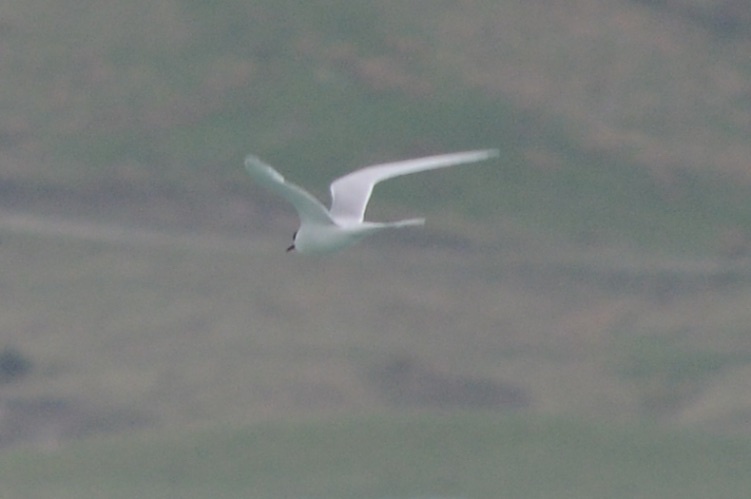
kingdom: Animalia
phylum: Chordata
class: Aves
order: Charadriiformes
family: Laridae
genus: Sterna
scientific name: Sterna striata
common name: White-fronted tern
